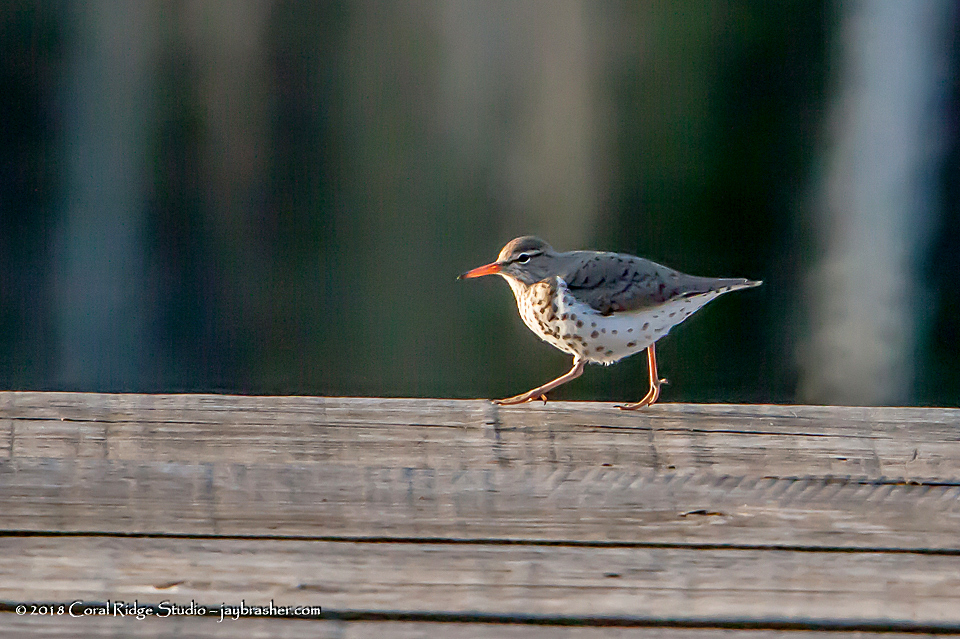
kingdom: Animalia
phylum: Chordata
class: Aves
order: Charadriiformes
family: Scolopacidae
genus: Actitis
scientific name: Actitis macularius
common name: Spotted sandpiper
